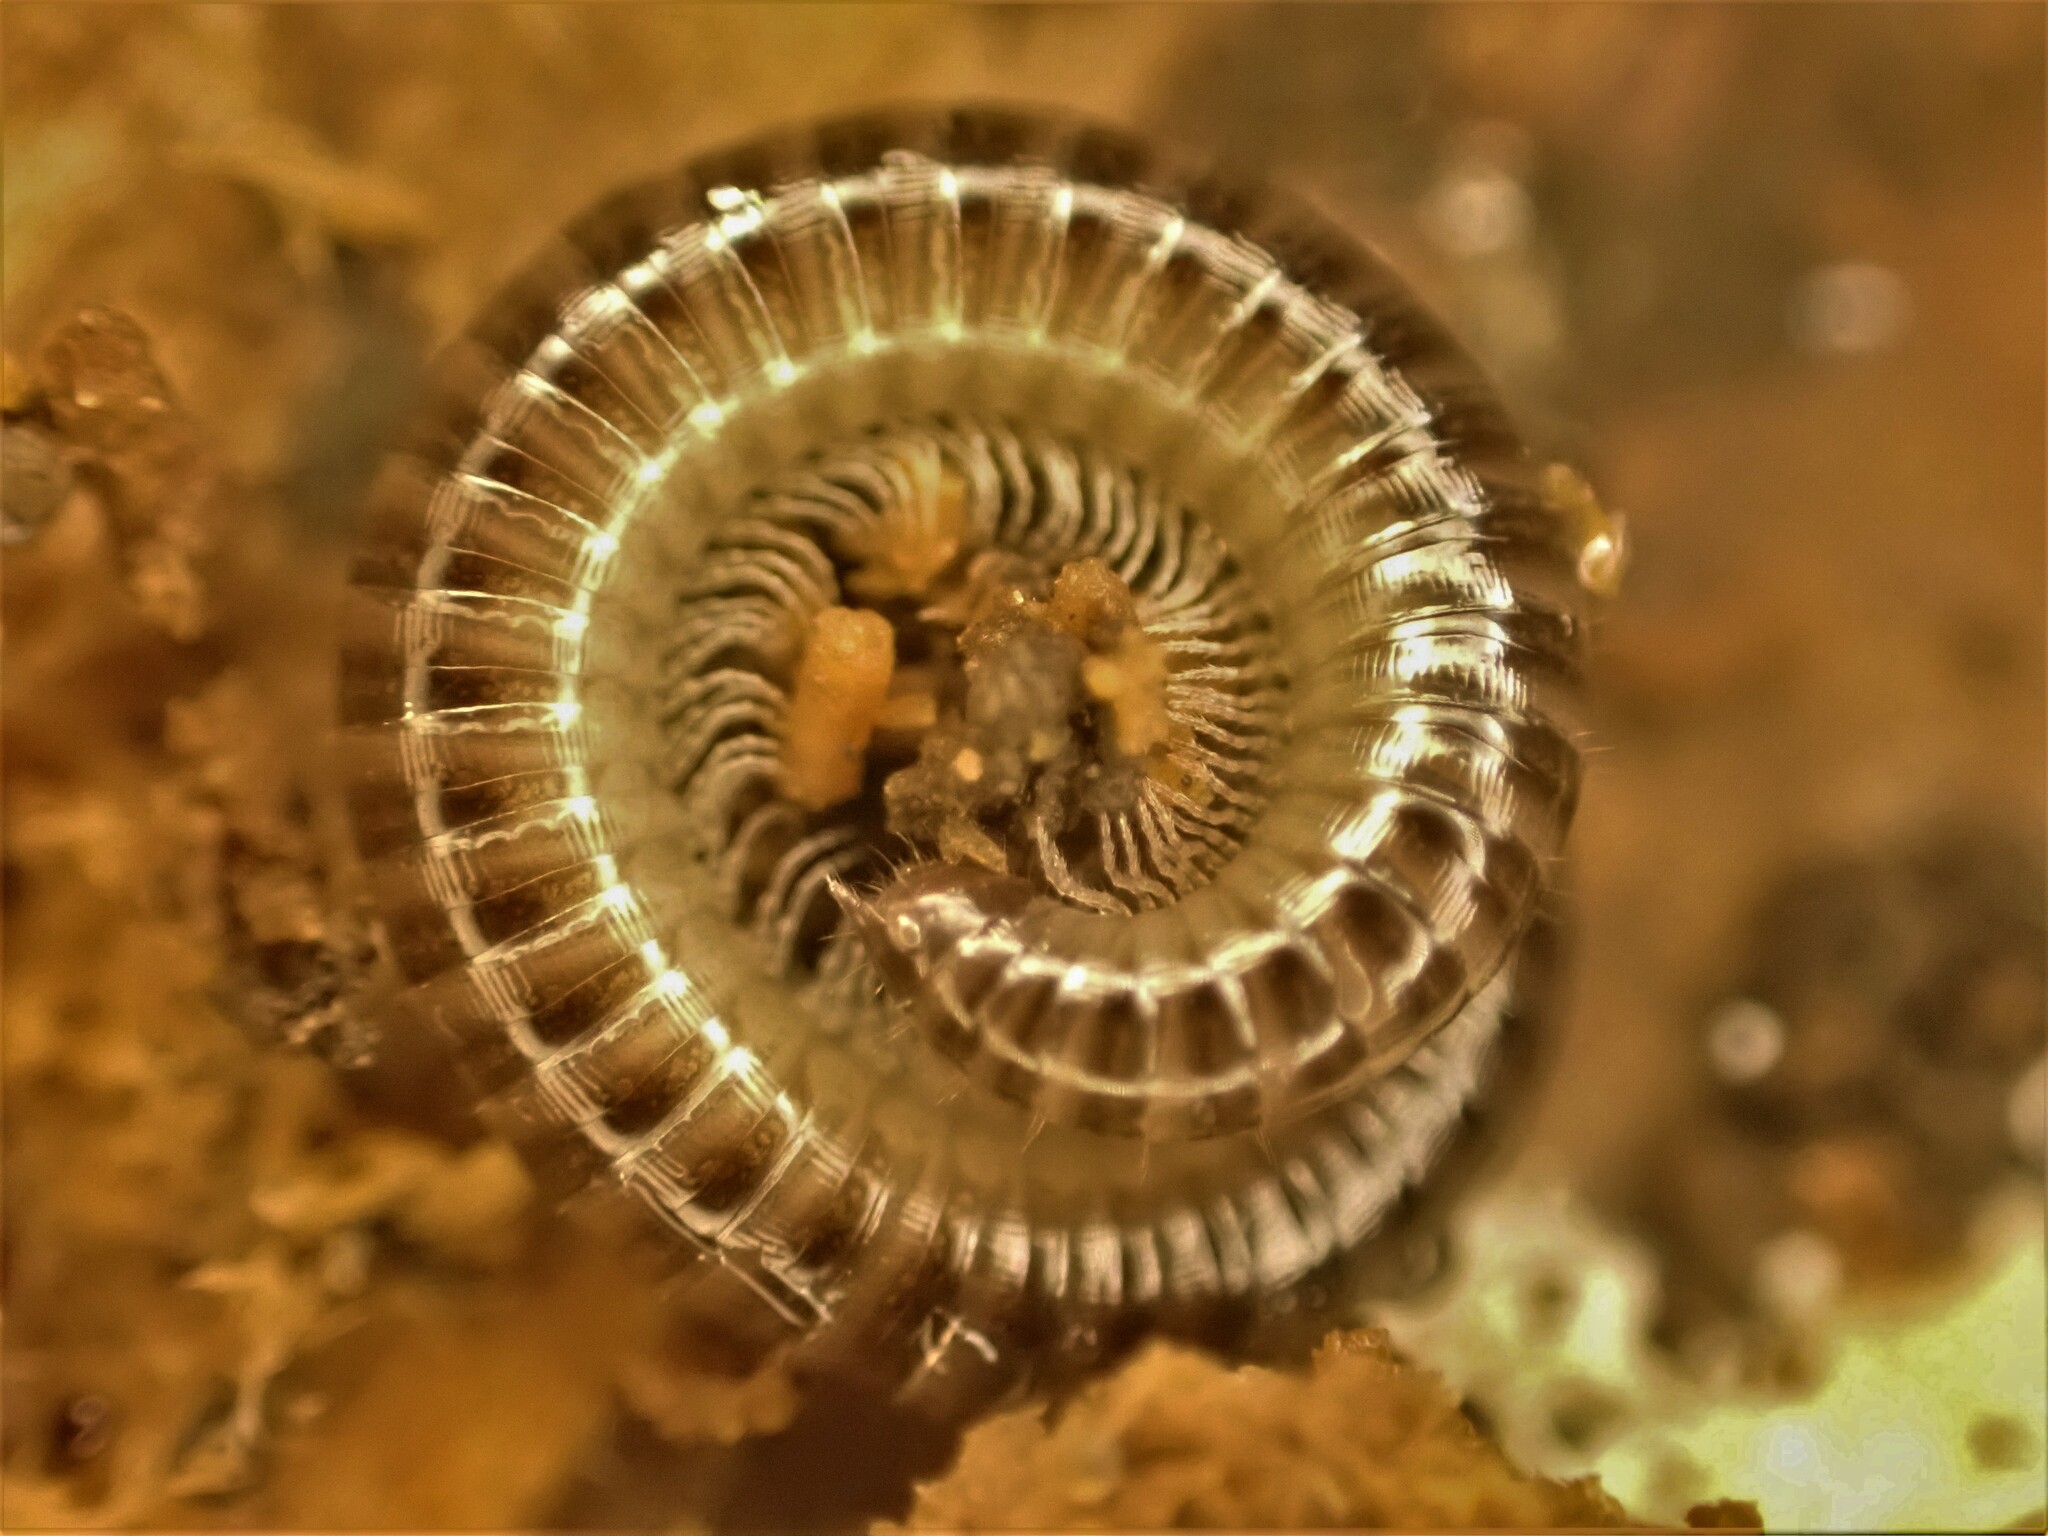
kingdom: Animalia
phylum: Arthropoda
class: Diplopoda
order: Julida
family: Julidae
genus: Ophyiulus
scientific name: Ophyiulus pilosus
